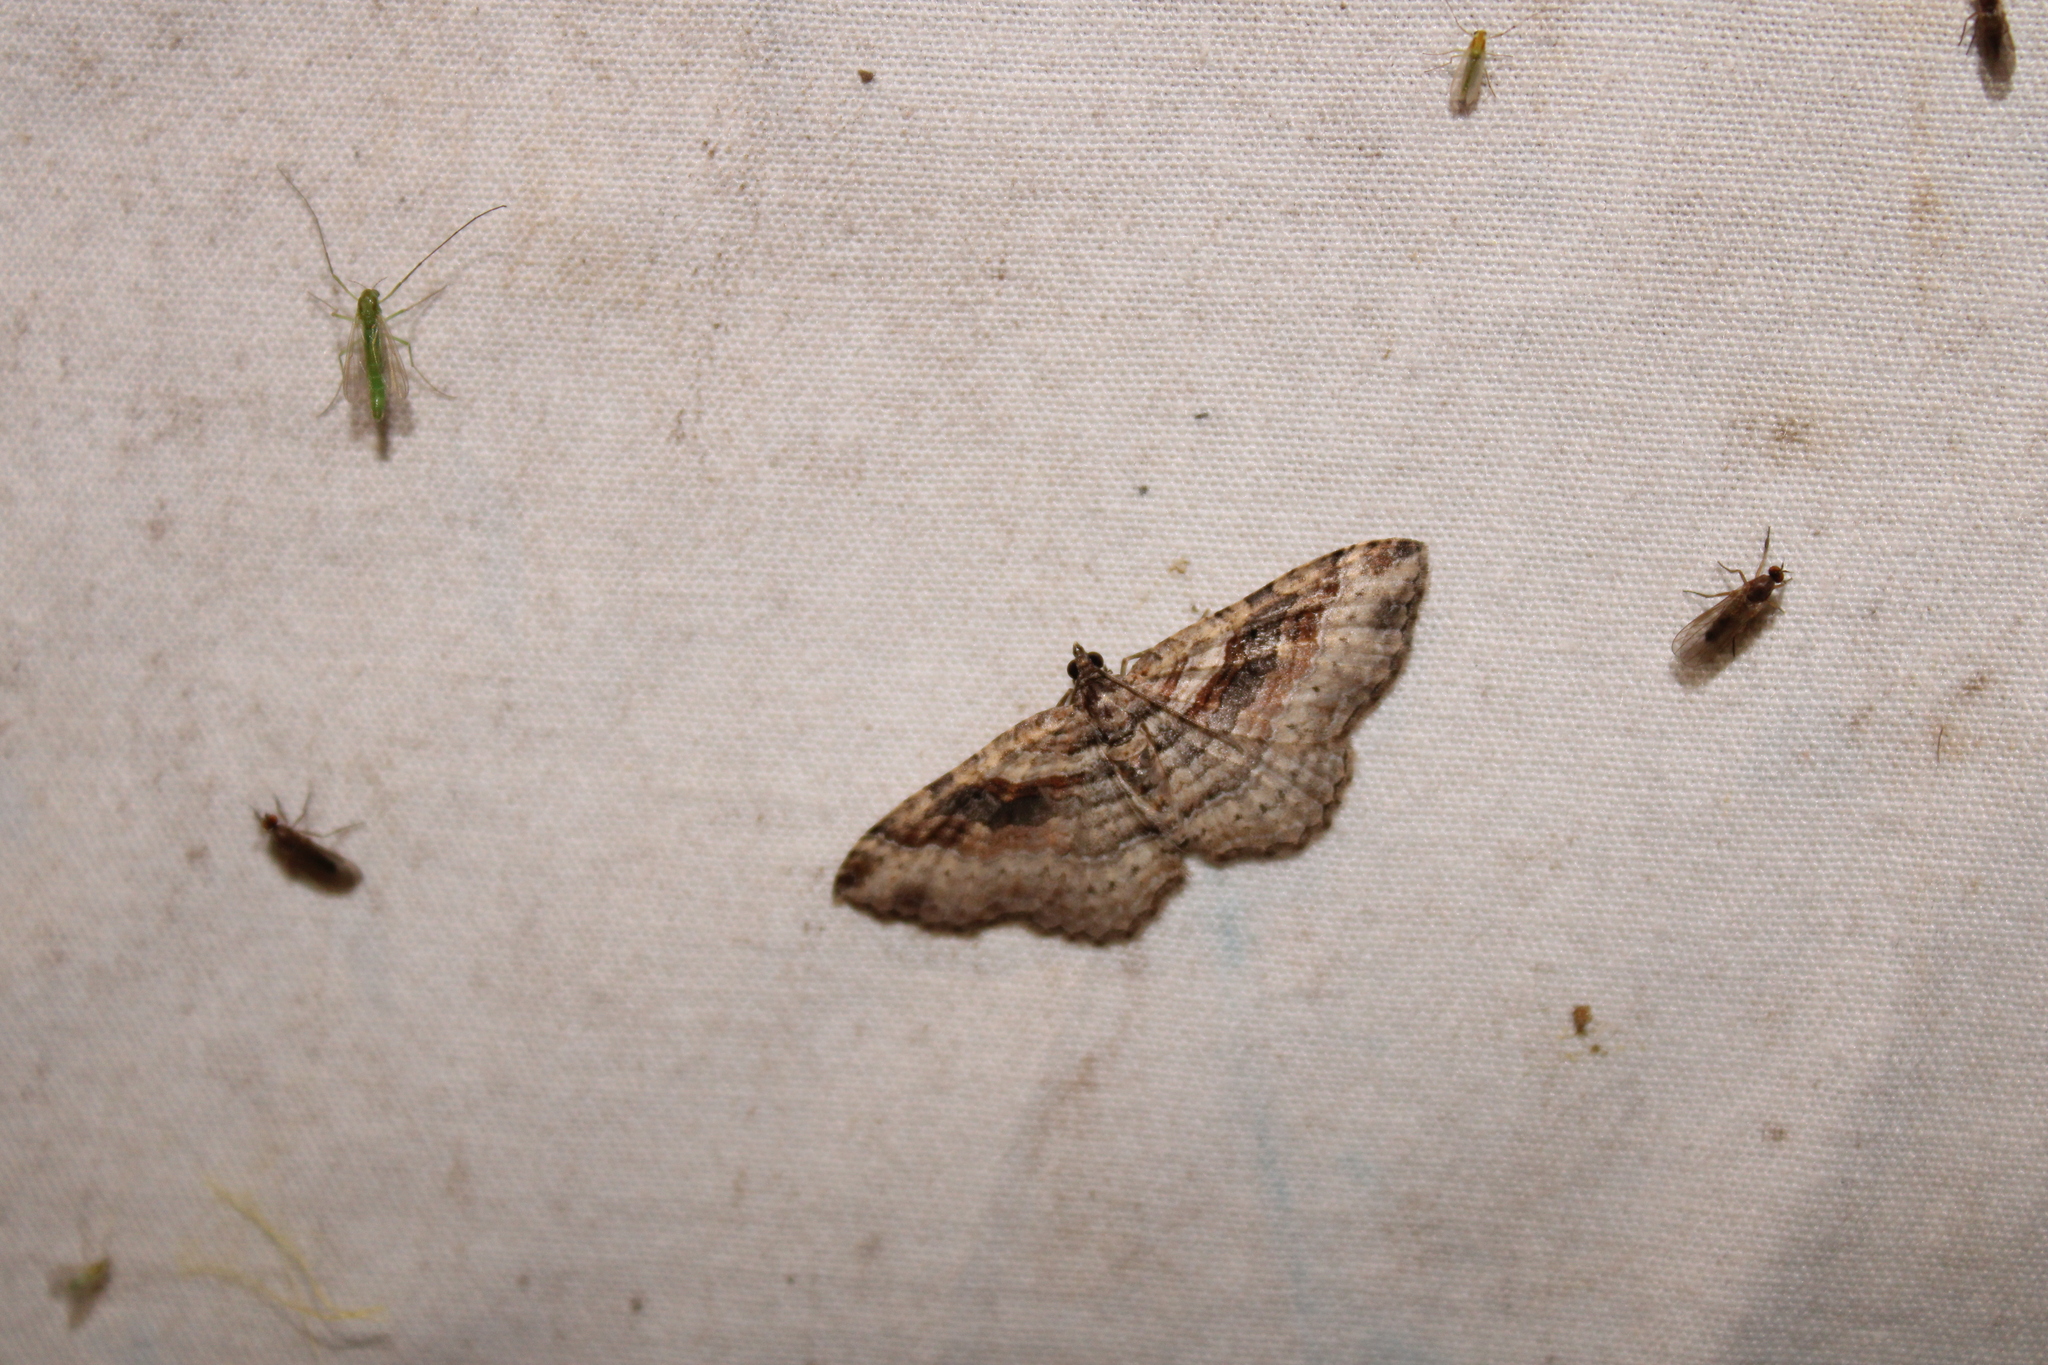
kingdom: Animalia
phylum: Arthropoda
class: Insecta
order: Lepidoptera
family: Geometridae
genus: Costaconvexa
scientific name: Costaconvexa centrostrigaria
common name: Bent-line carpet
